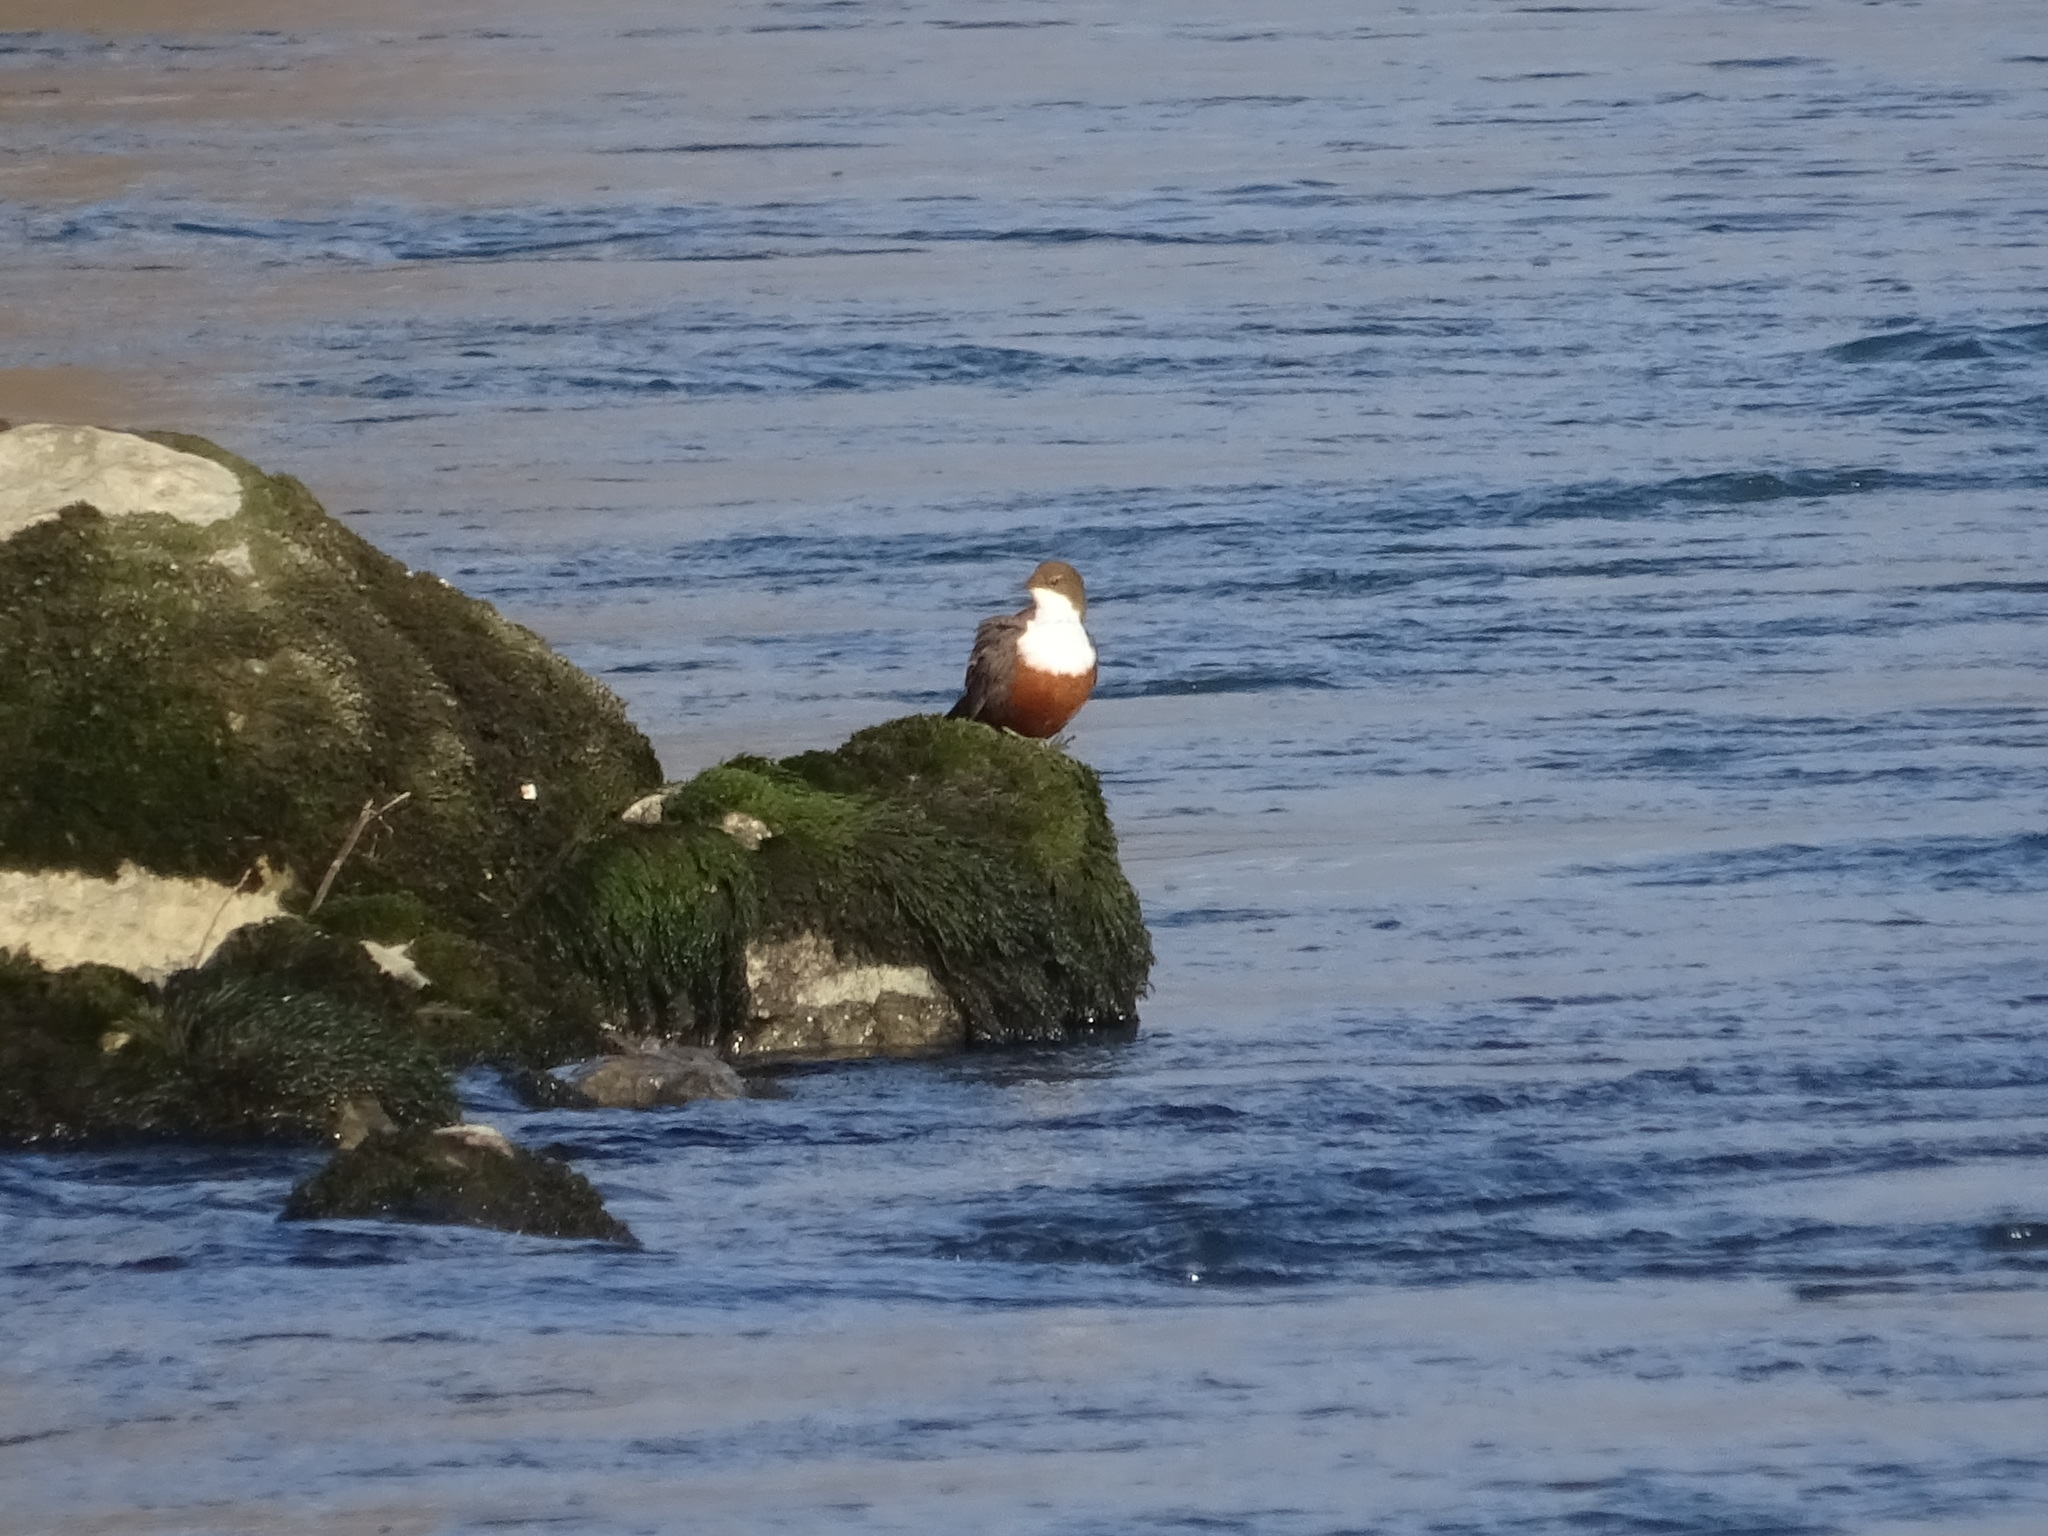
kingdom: Animalia
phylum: Chordata
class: Aves
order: Passeriformes
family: Cinclidae
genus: Cinclus
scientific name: Cinclus cinclus
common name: White-throated dipper
